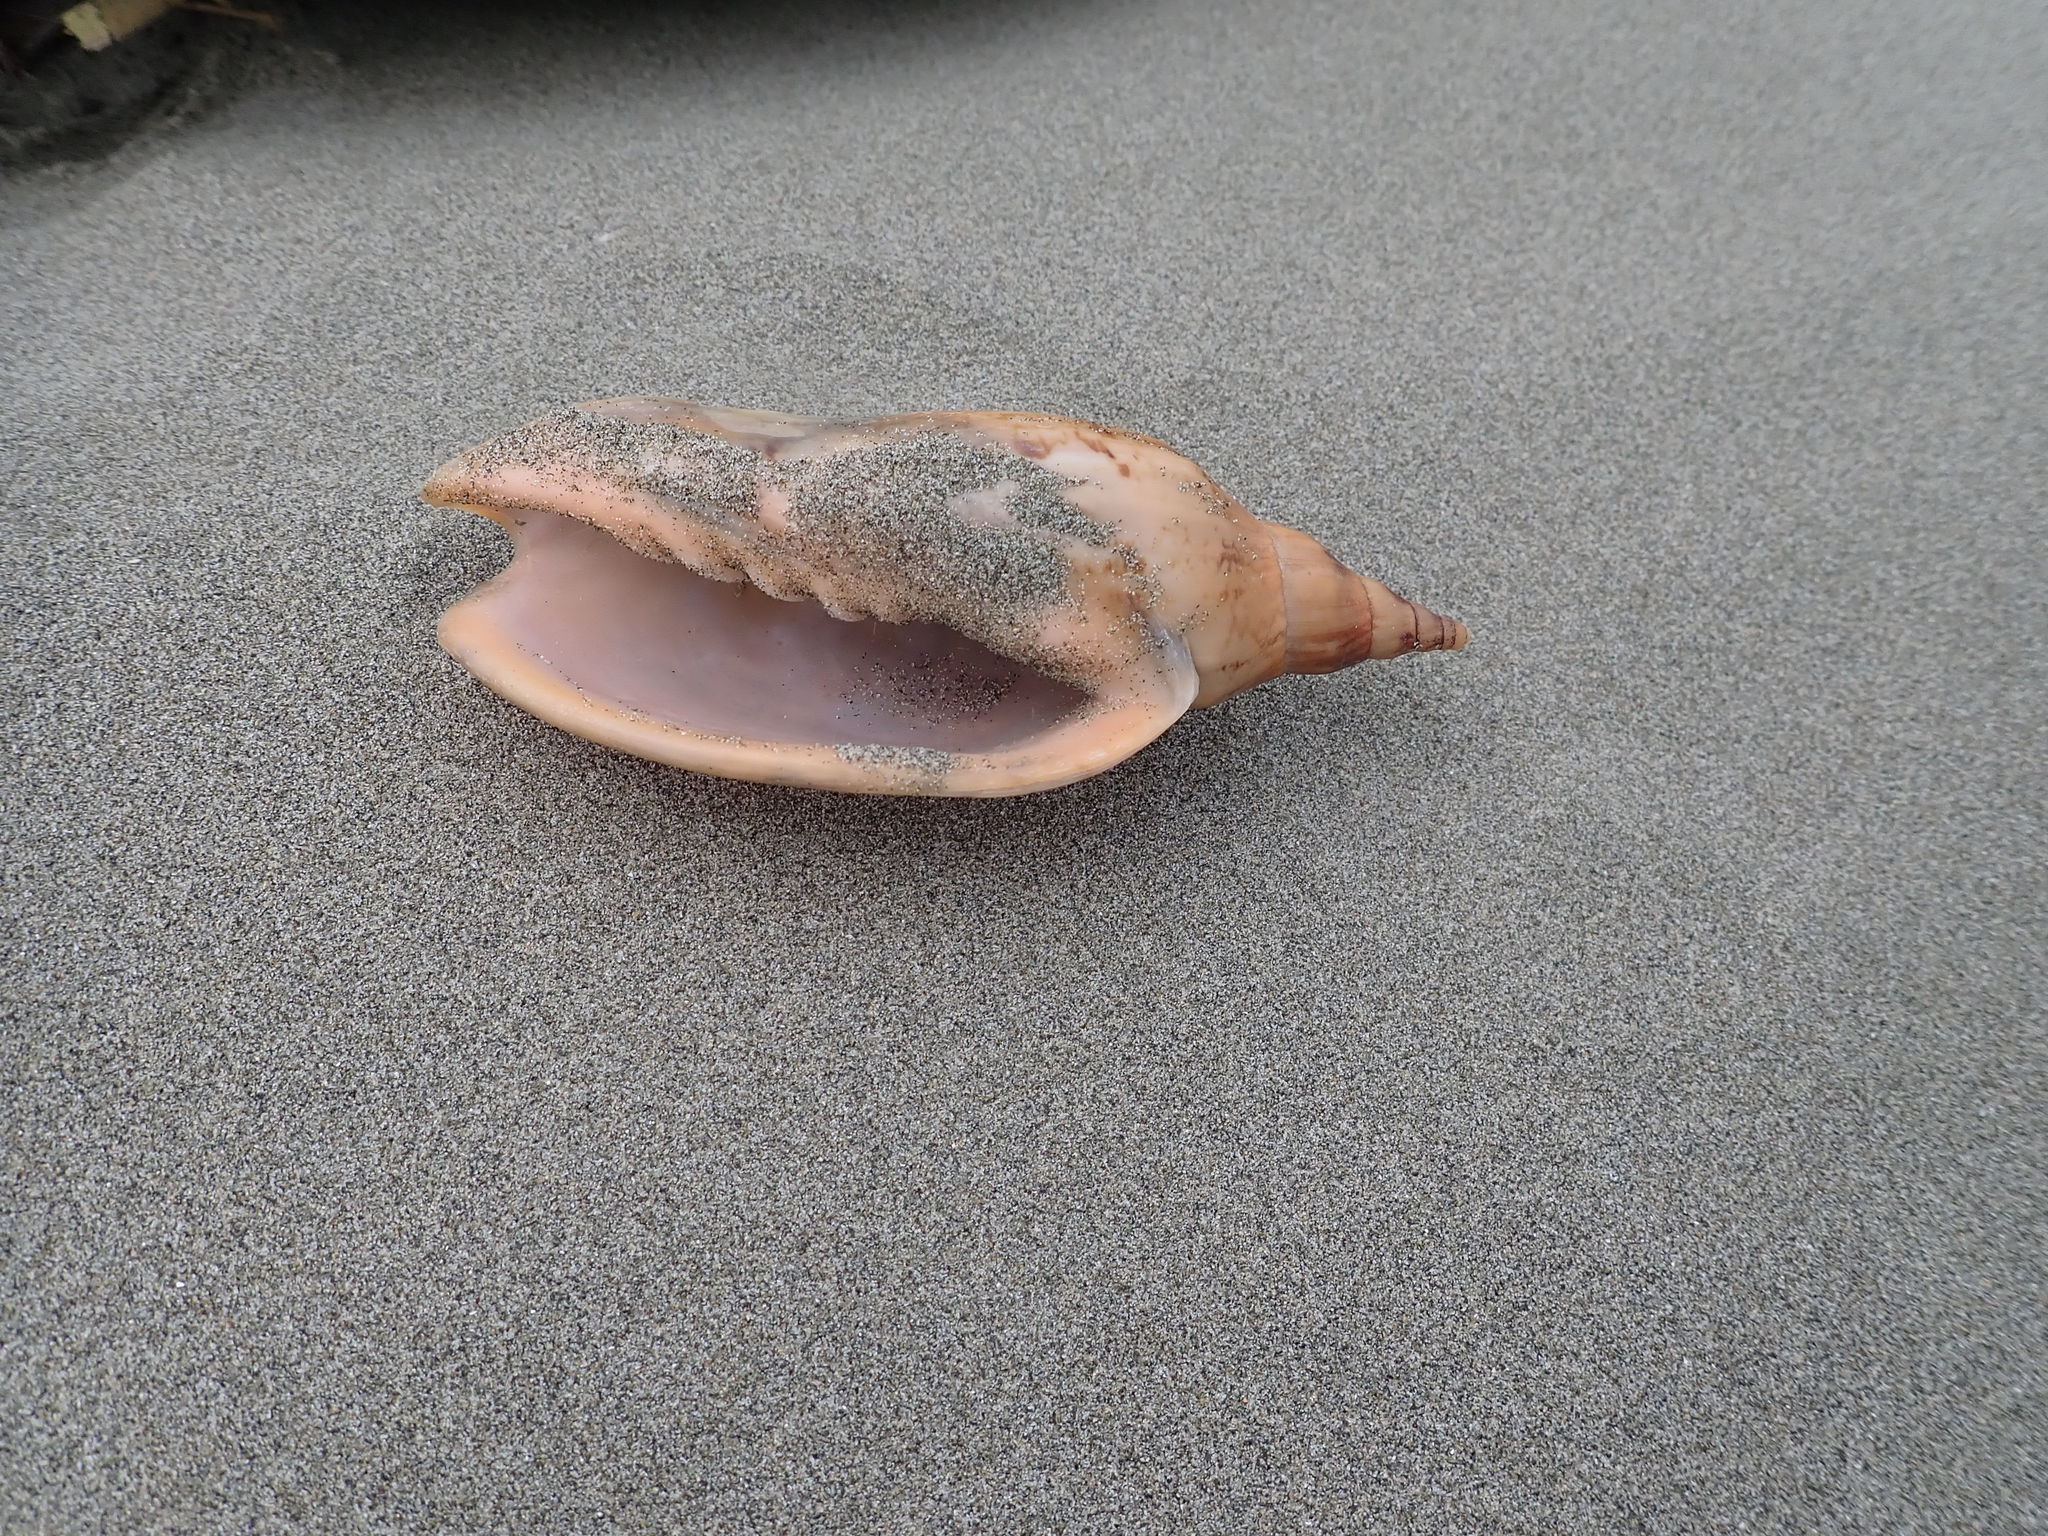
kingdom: Animalia
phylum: Mollusca
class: Gastropoda
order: Neogastropoda
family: Volutidae
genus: Alcithoe
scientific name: Alcithoe arabica
